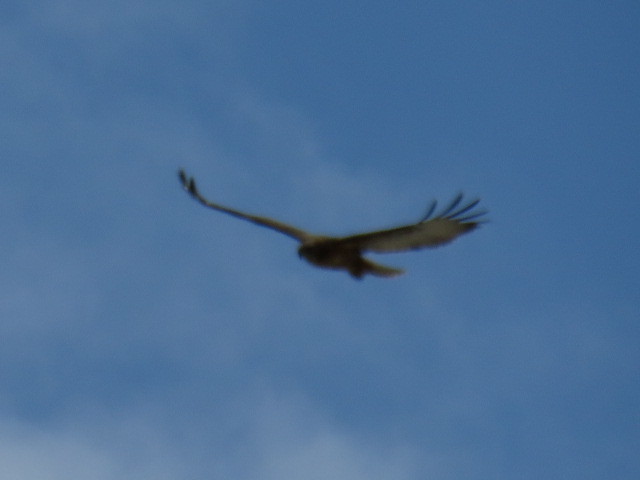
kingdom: Animalia
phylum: Chordata
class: Aves
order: Accipitriformes
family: Accipitridae
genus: Buteo
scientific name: Buteo rufofuscus
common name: Jackal buzzard
